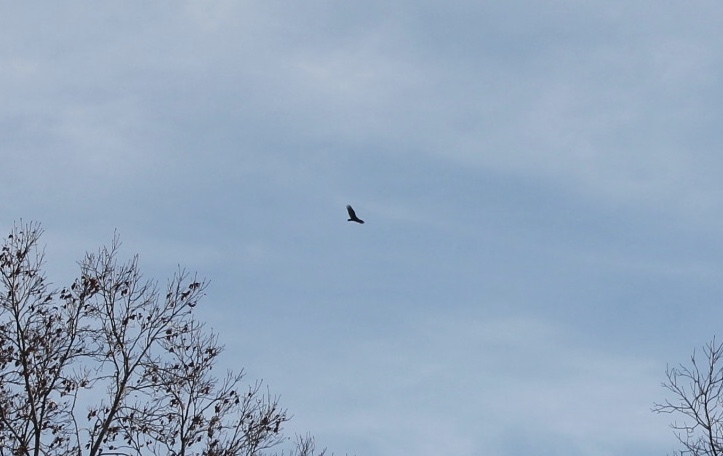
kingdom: Animalia
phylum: Chordata
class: Aves
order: Accipitriformes
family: Cathartidae
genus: Cathartes
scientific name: Cathartes aura
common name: Turkey vulture
